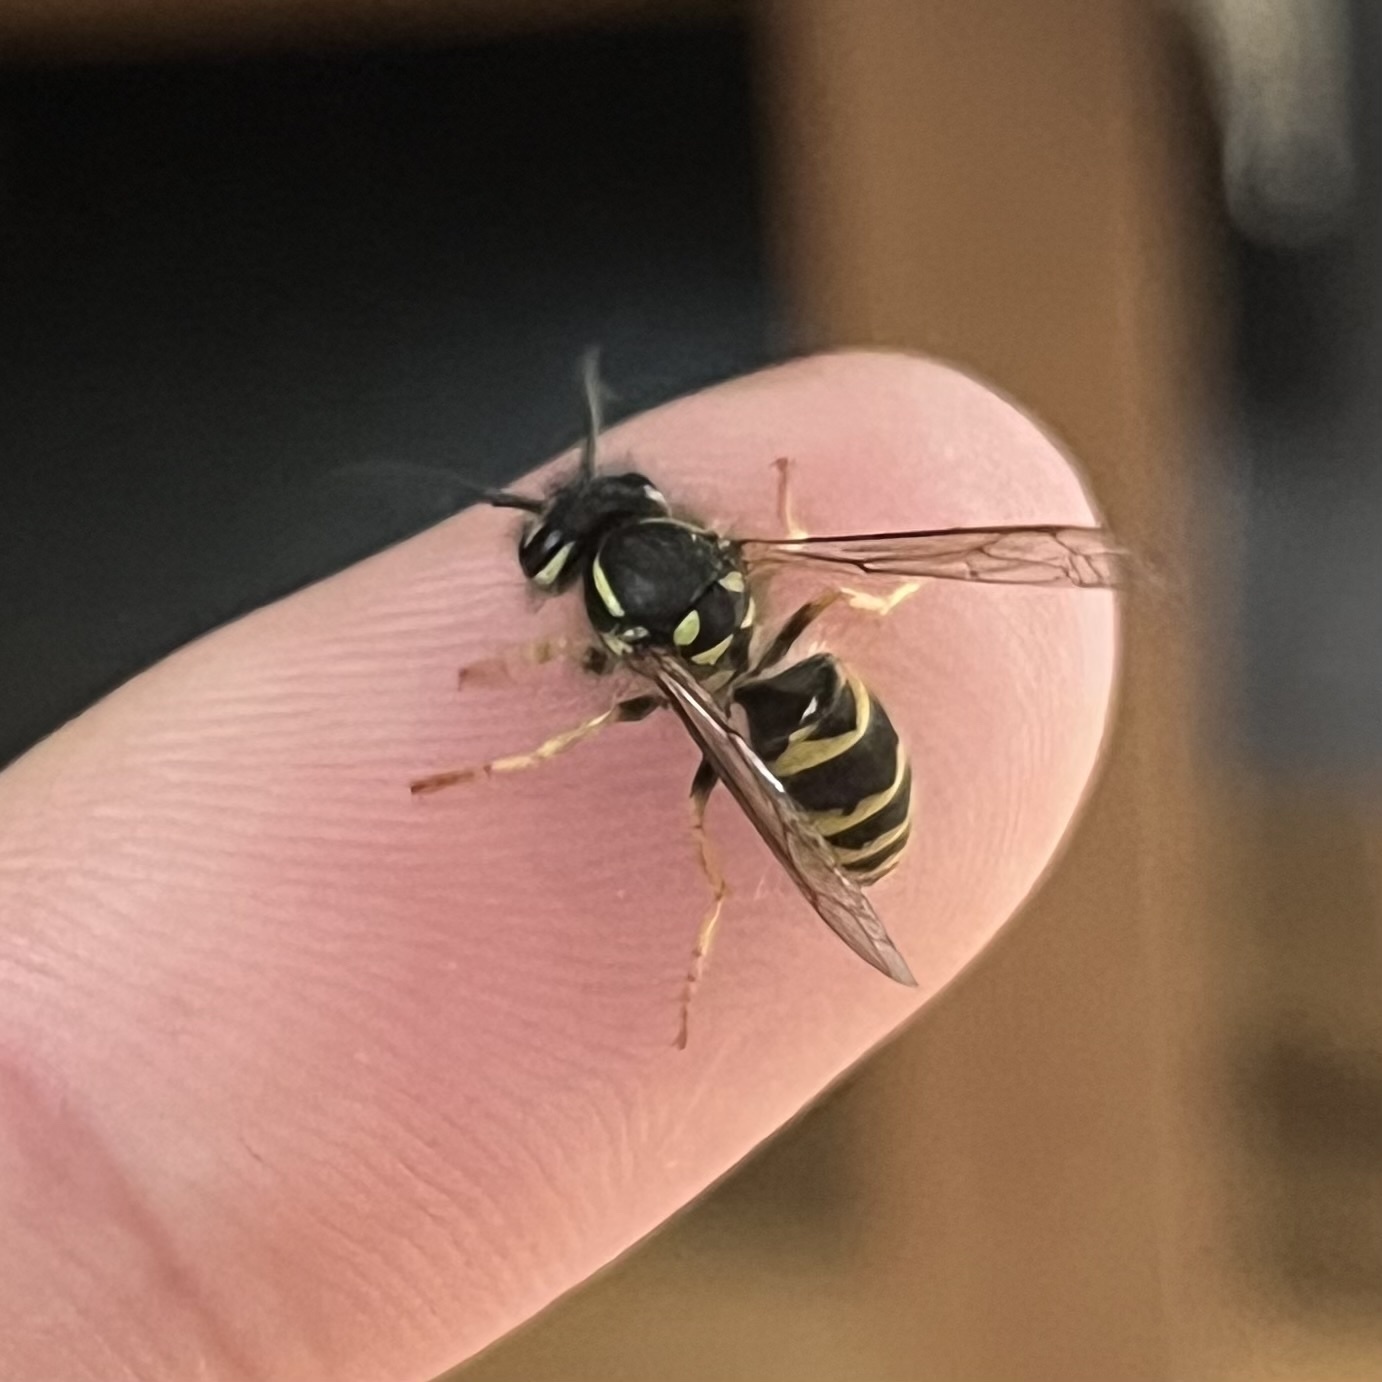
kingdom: Animalia
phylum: Arthropoda
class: Insecta
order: Hymenoptera
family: Vespidae
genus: Vespula
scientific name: Vespula vulgaris
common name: Common wasp
